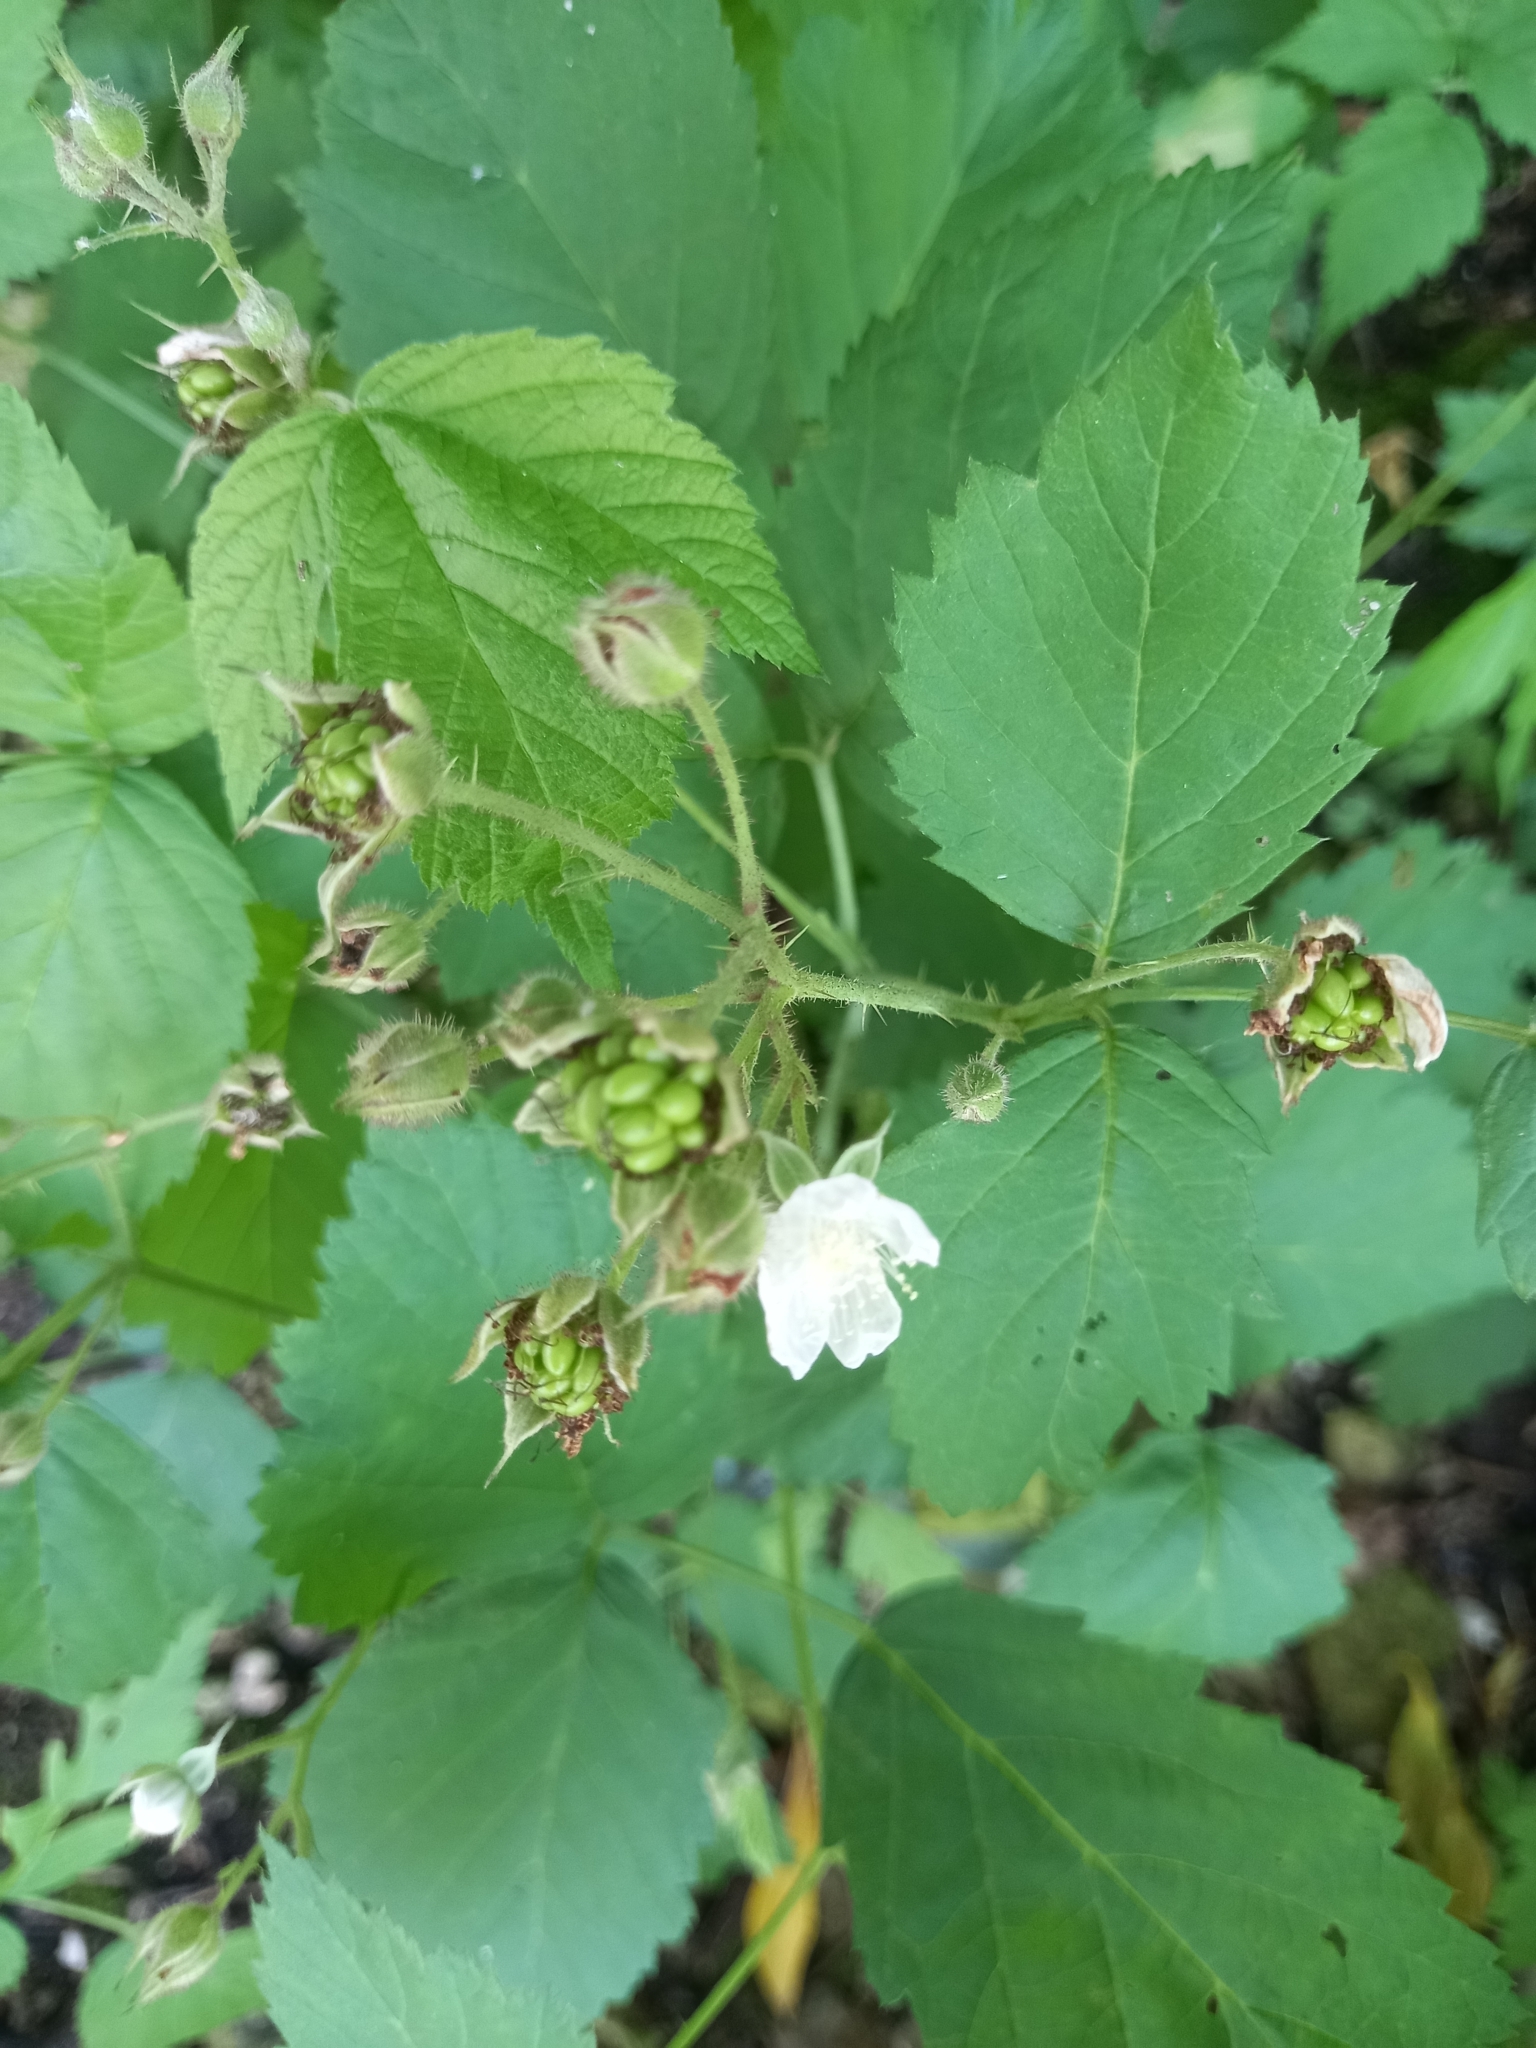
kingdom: Plantae
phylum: Tracheophyta
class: Magnoliopsida
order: Rosales
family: Rosaceae
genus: Rubus
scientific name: Rubus caesius
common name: Dewberry
